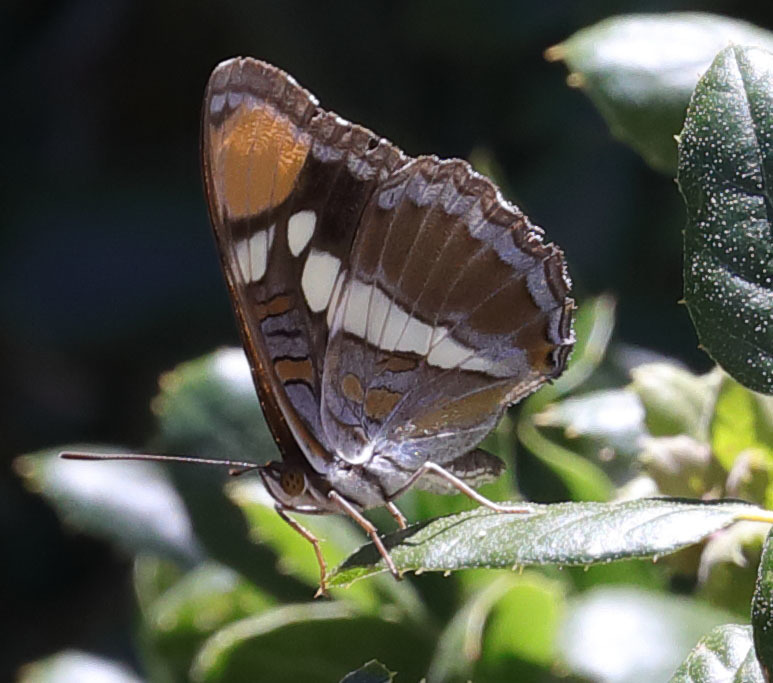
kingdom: Animalia
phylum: Arthropoda
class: Insecta
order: Lepidoptera
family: Nymphalidae
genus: Limenitis
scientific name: Limenitis bredowii
